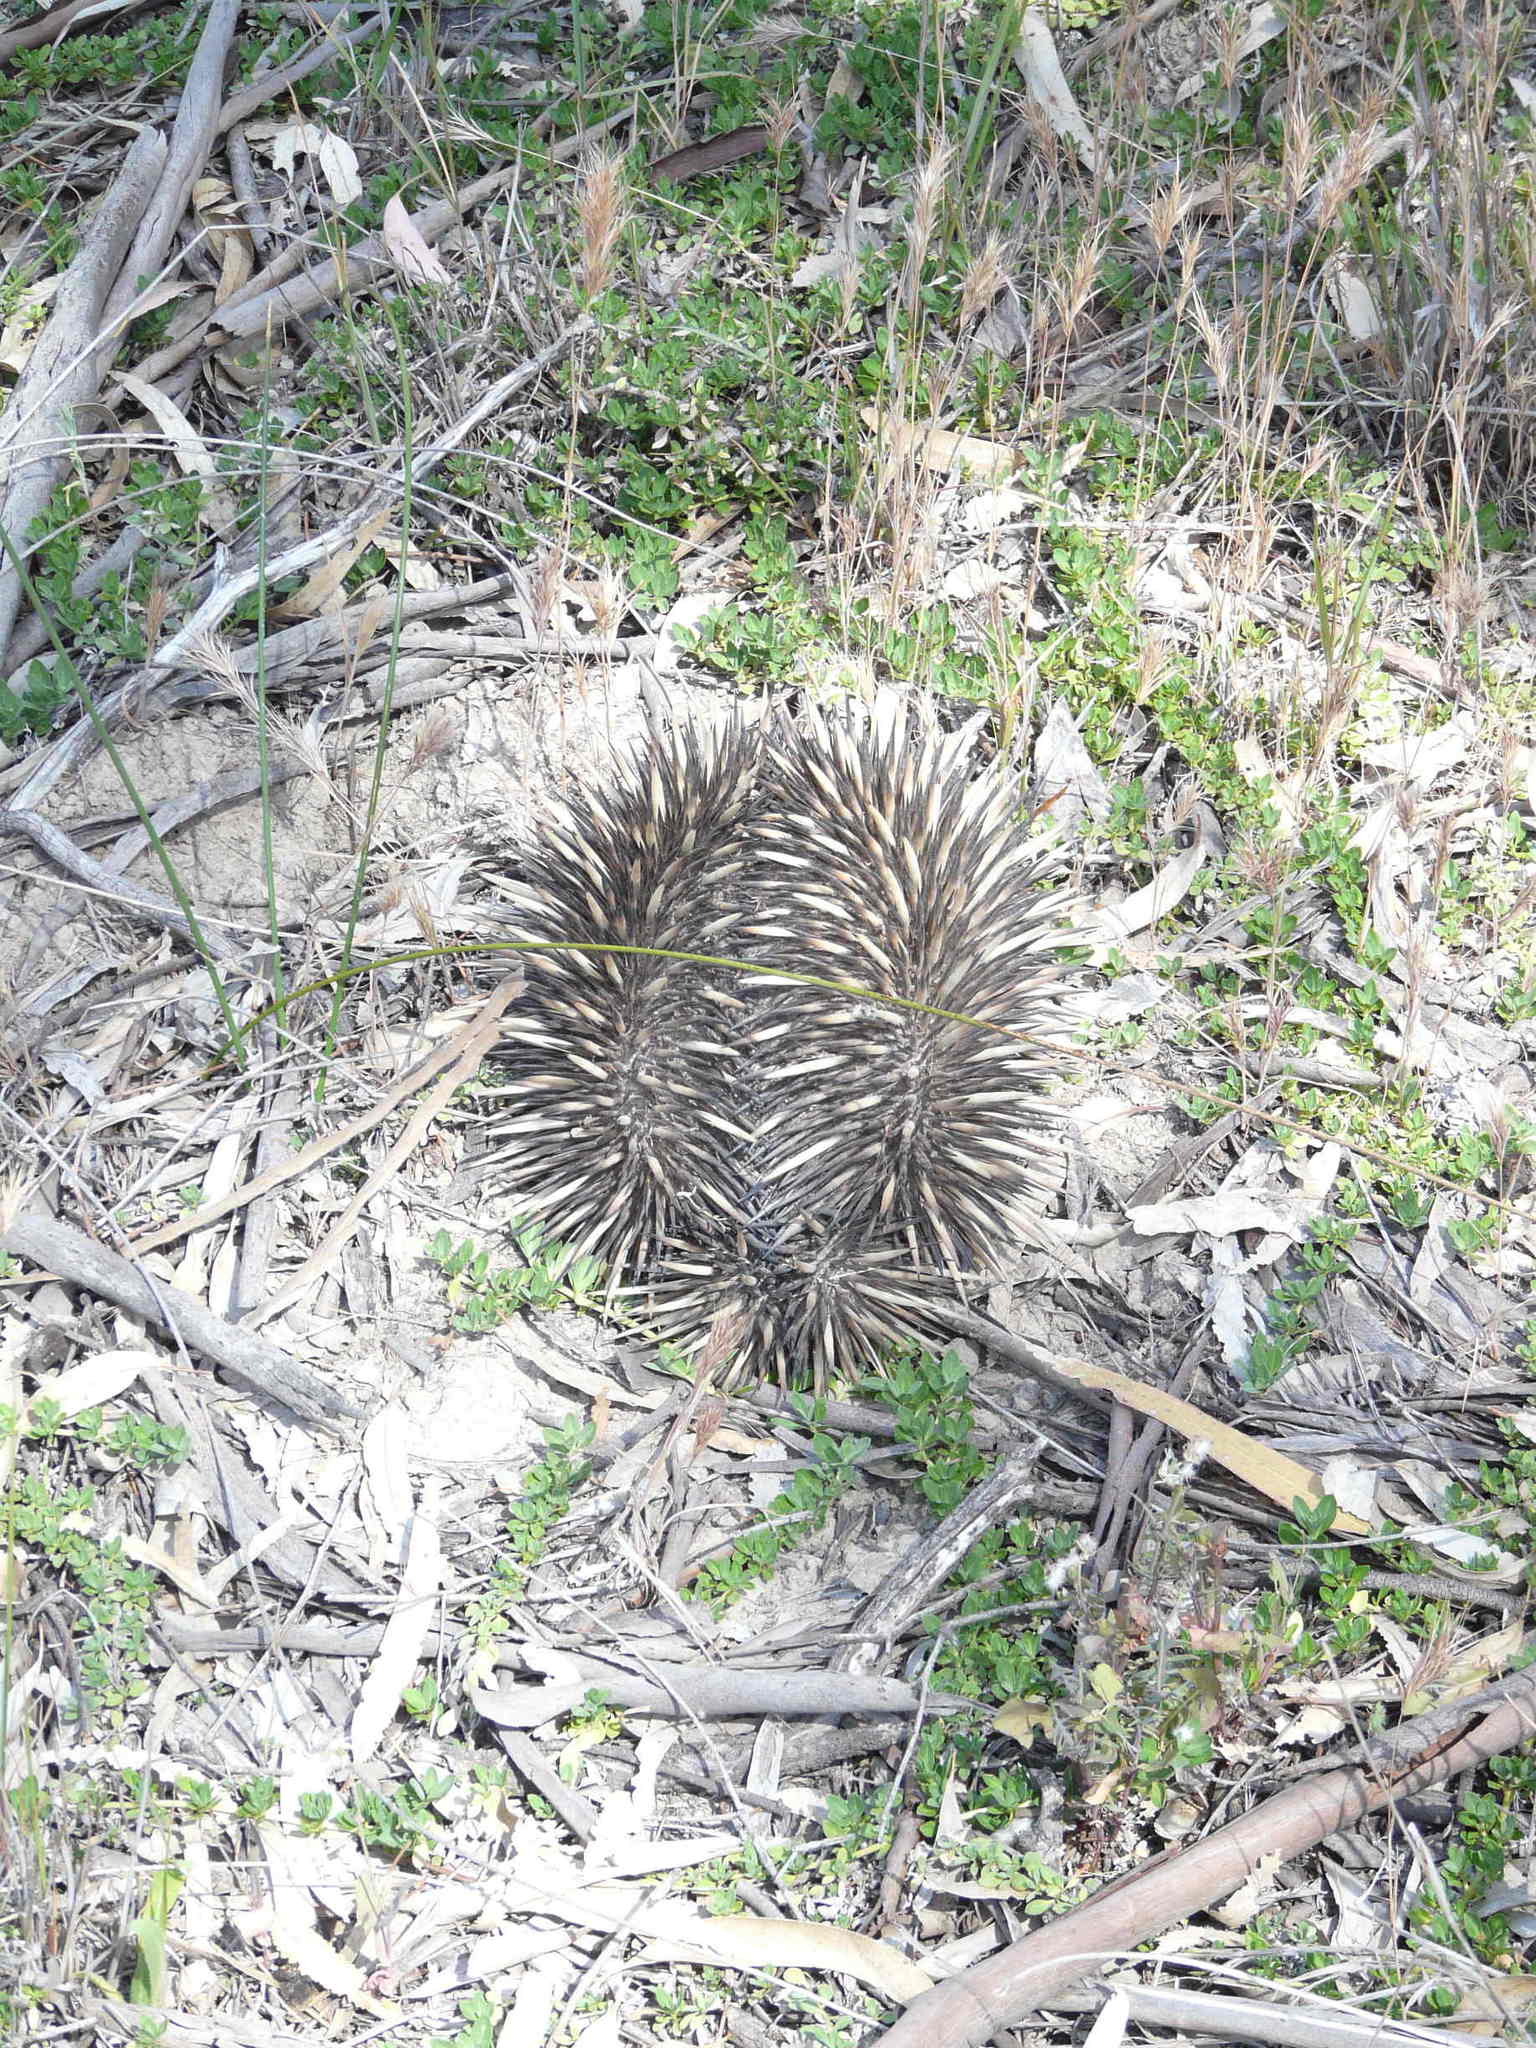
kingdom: Animalia
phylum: Chordata
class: Mammalia
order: Monotremata
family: Tachyglossidae
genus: Tachyglossus
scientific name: Tachyglossus aculeatus
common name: Short-beaked echidna
